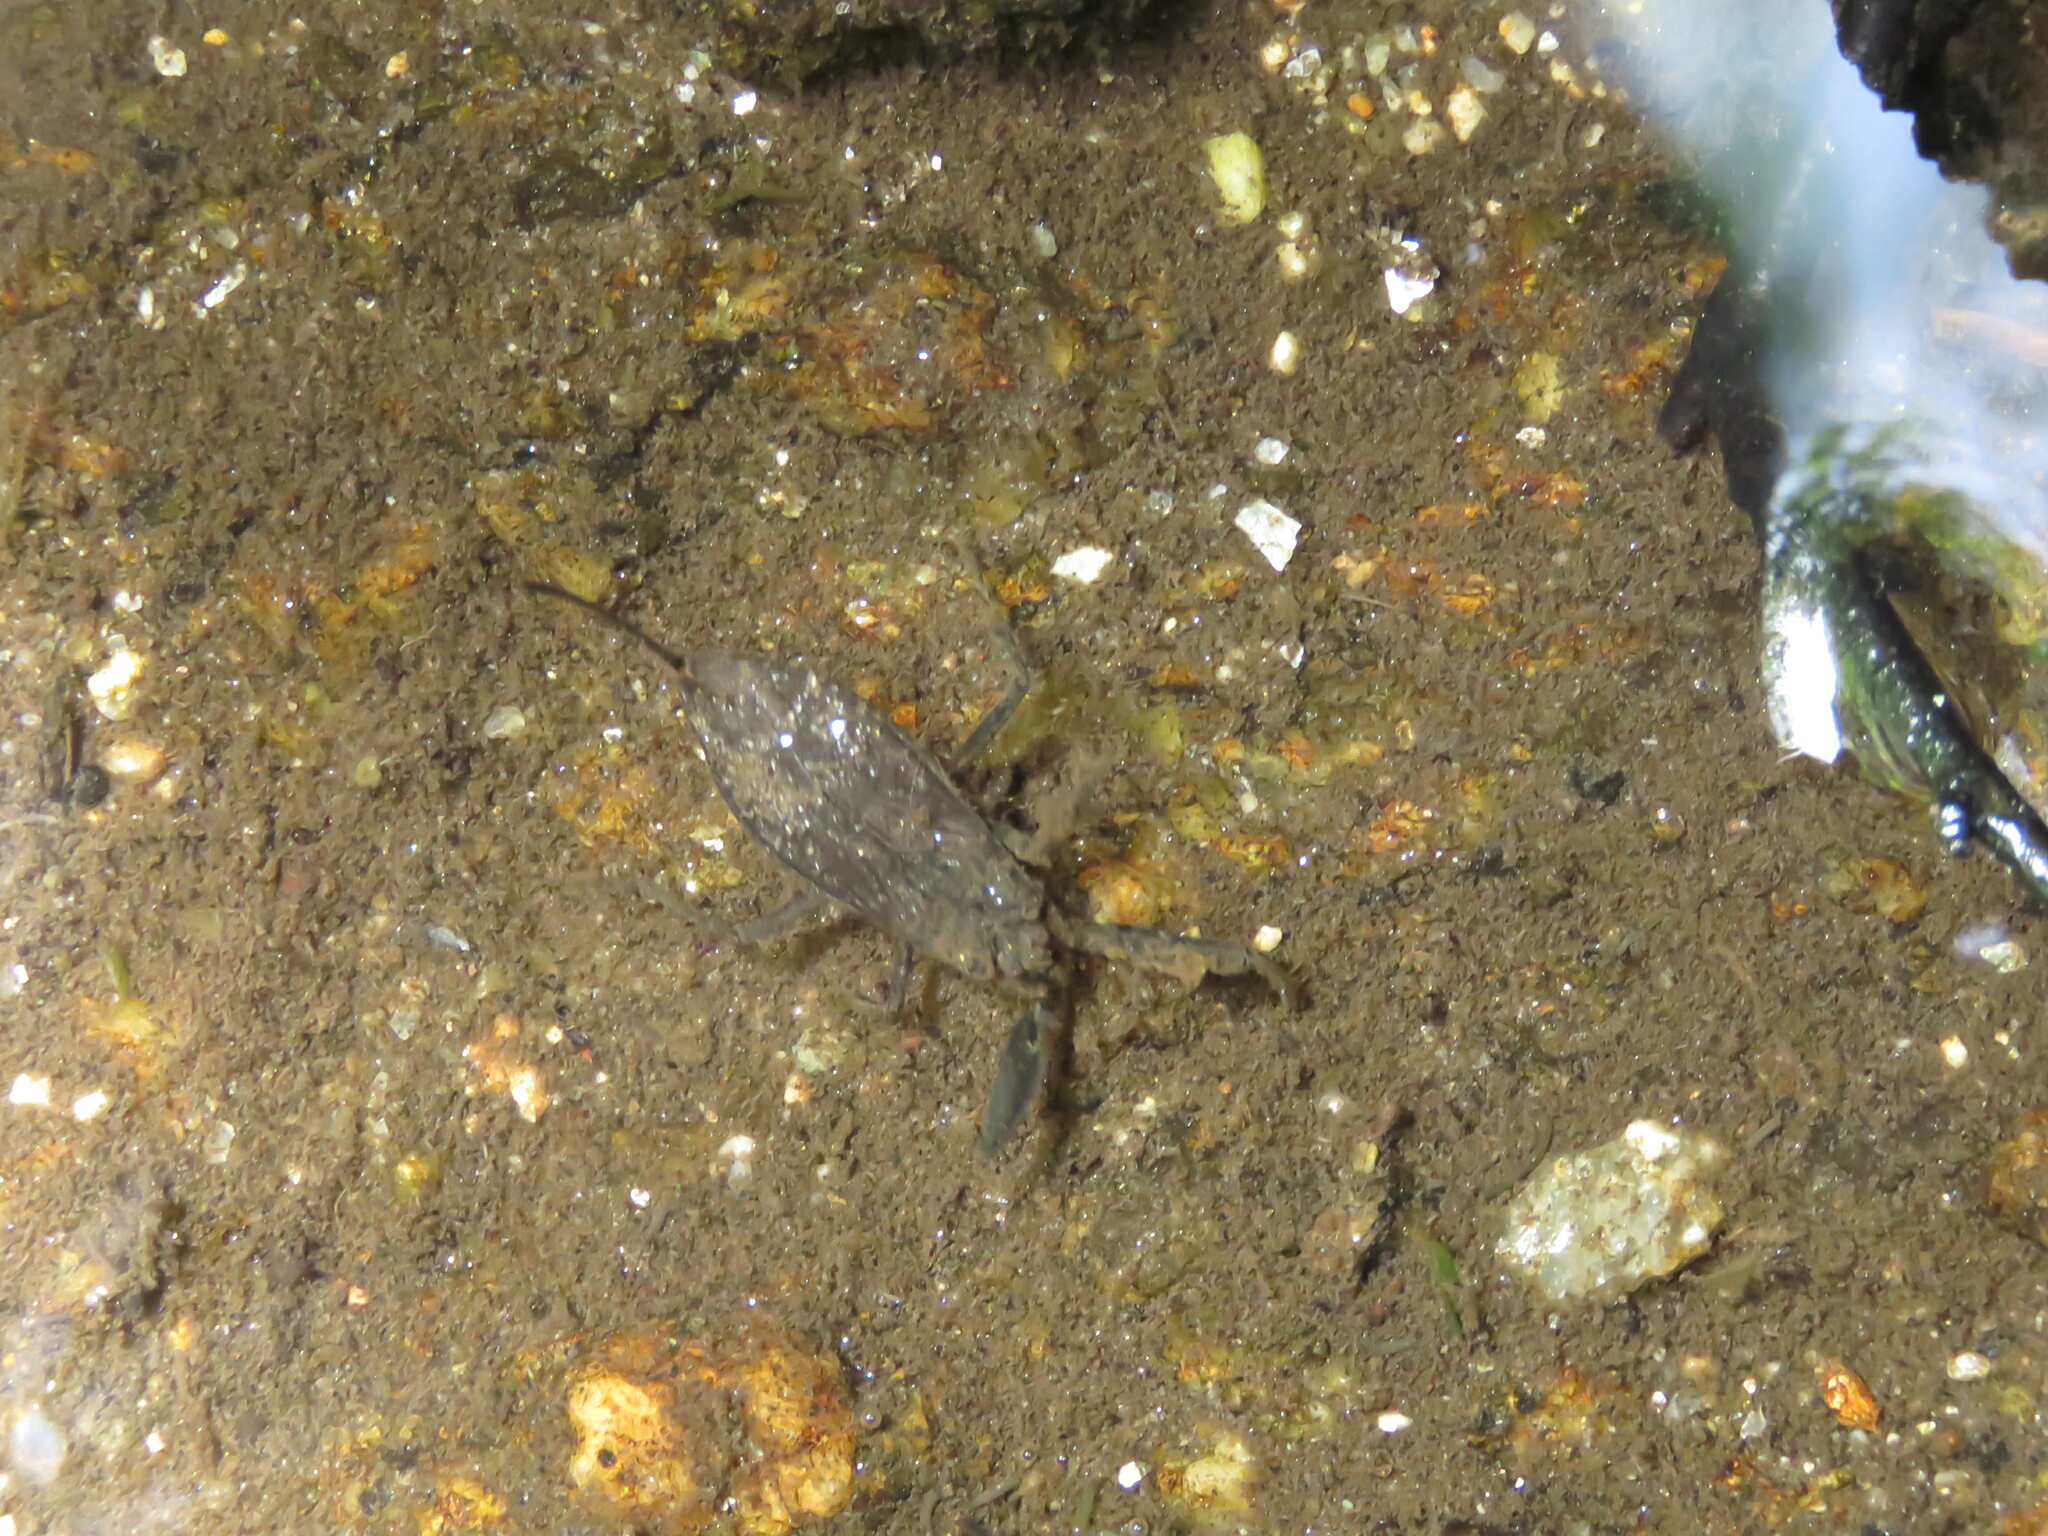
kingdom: Animalia
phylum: Arthropoda
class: Insecta
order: Hemiptera
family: Nepidae
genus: Nepa
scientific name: Nepa cinerea
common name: Water scorpion
